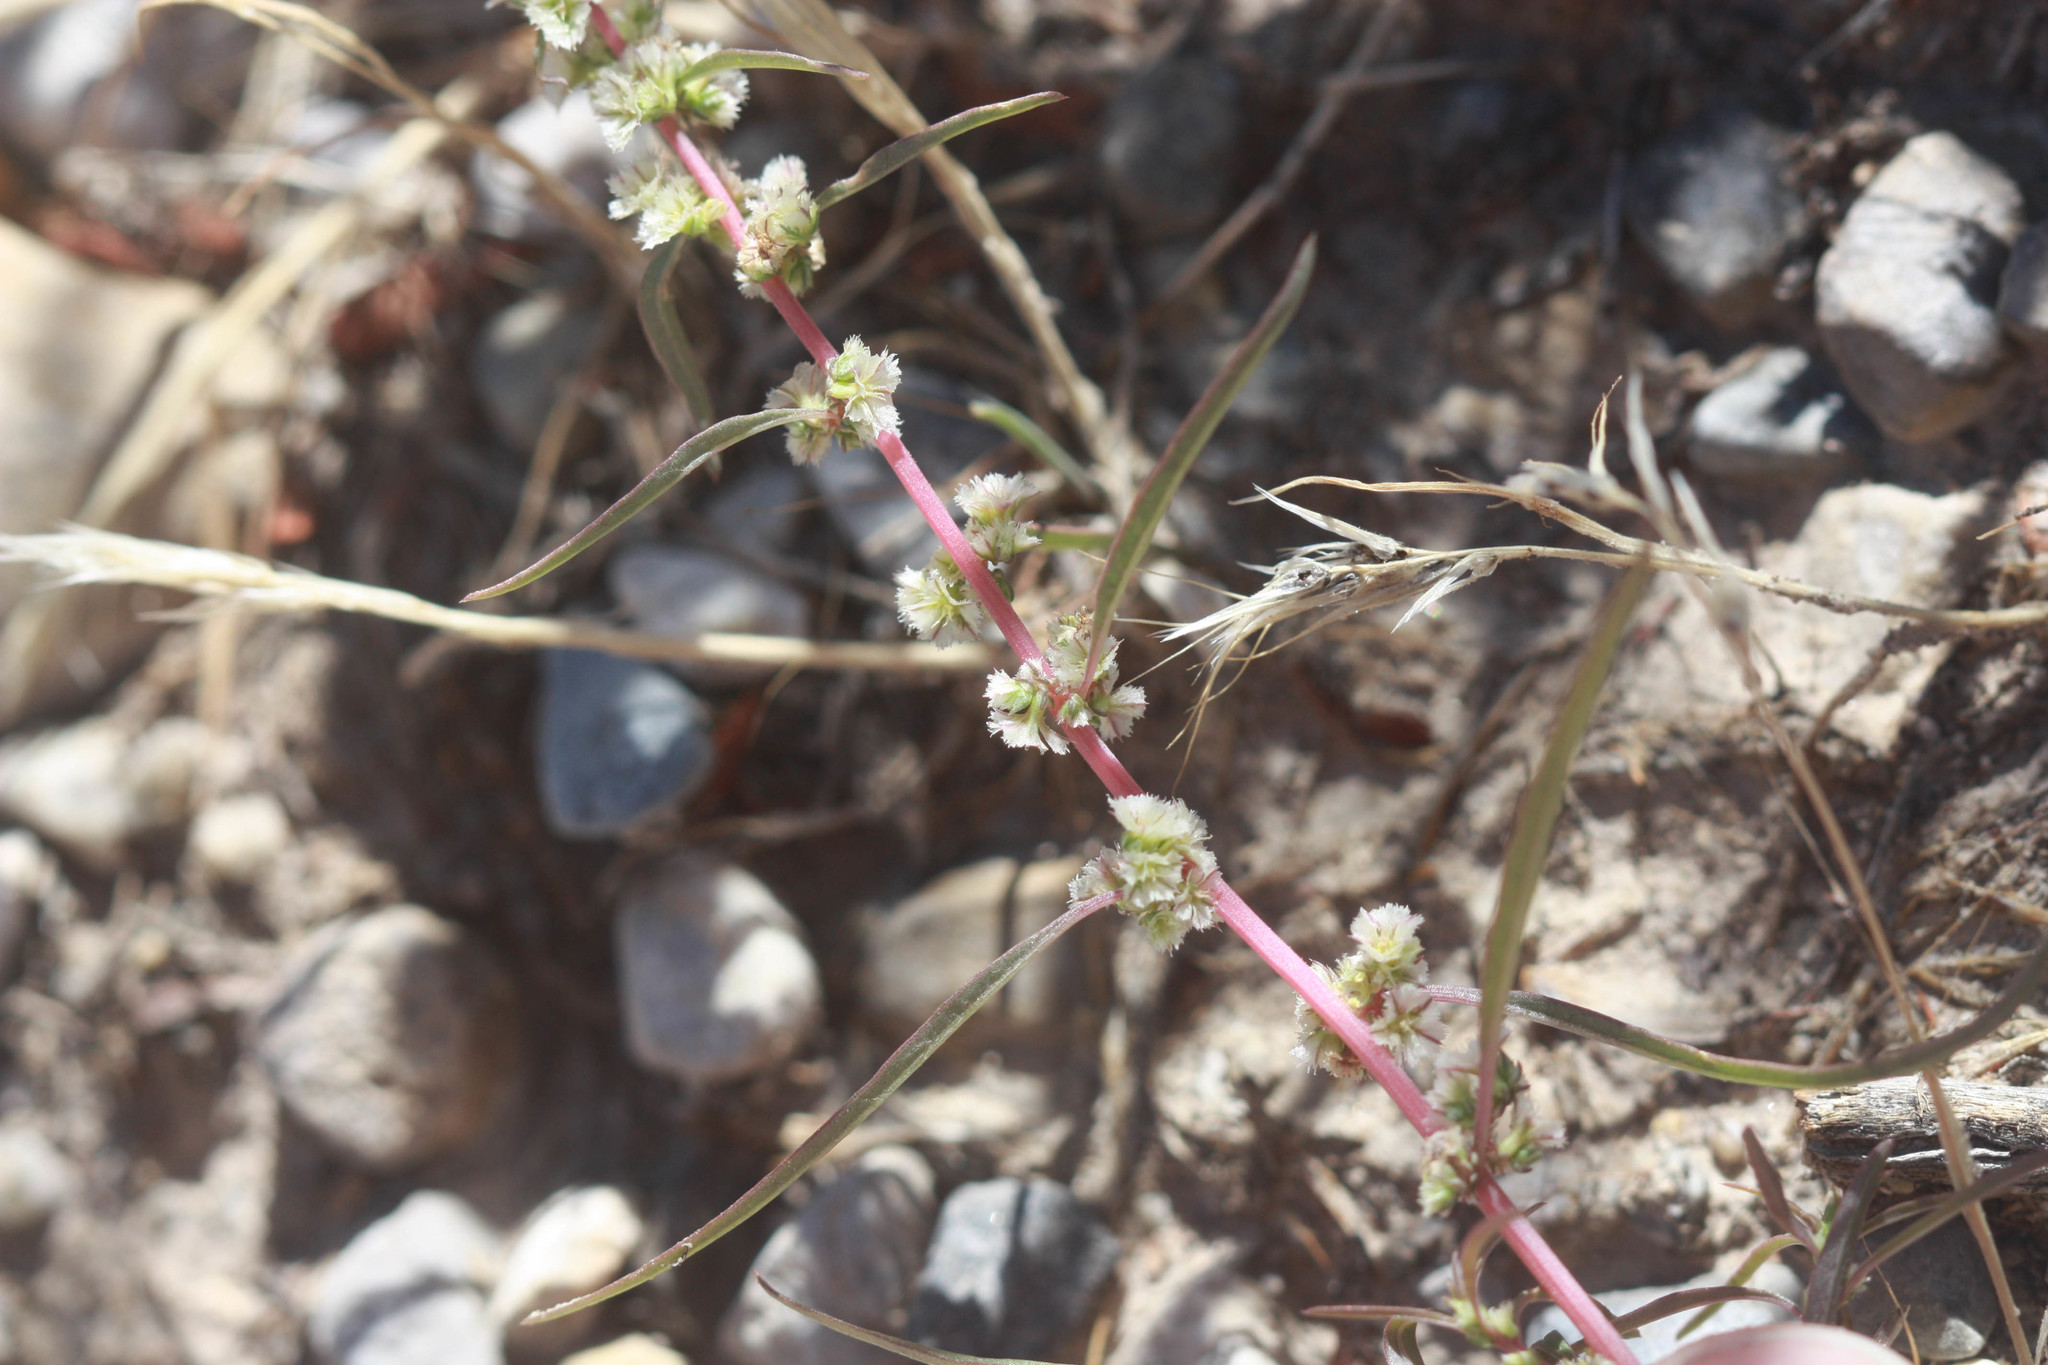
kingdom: Plantae
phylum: Tracheophyta
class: Magnoliopsida
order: Caryophyllales
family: Amaranthaceae
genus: Amaranthus
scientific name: Amaranthus fimbriatus
